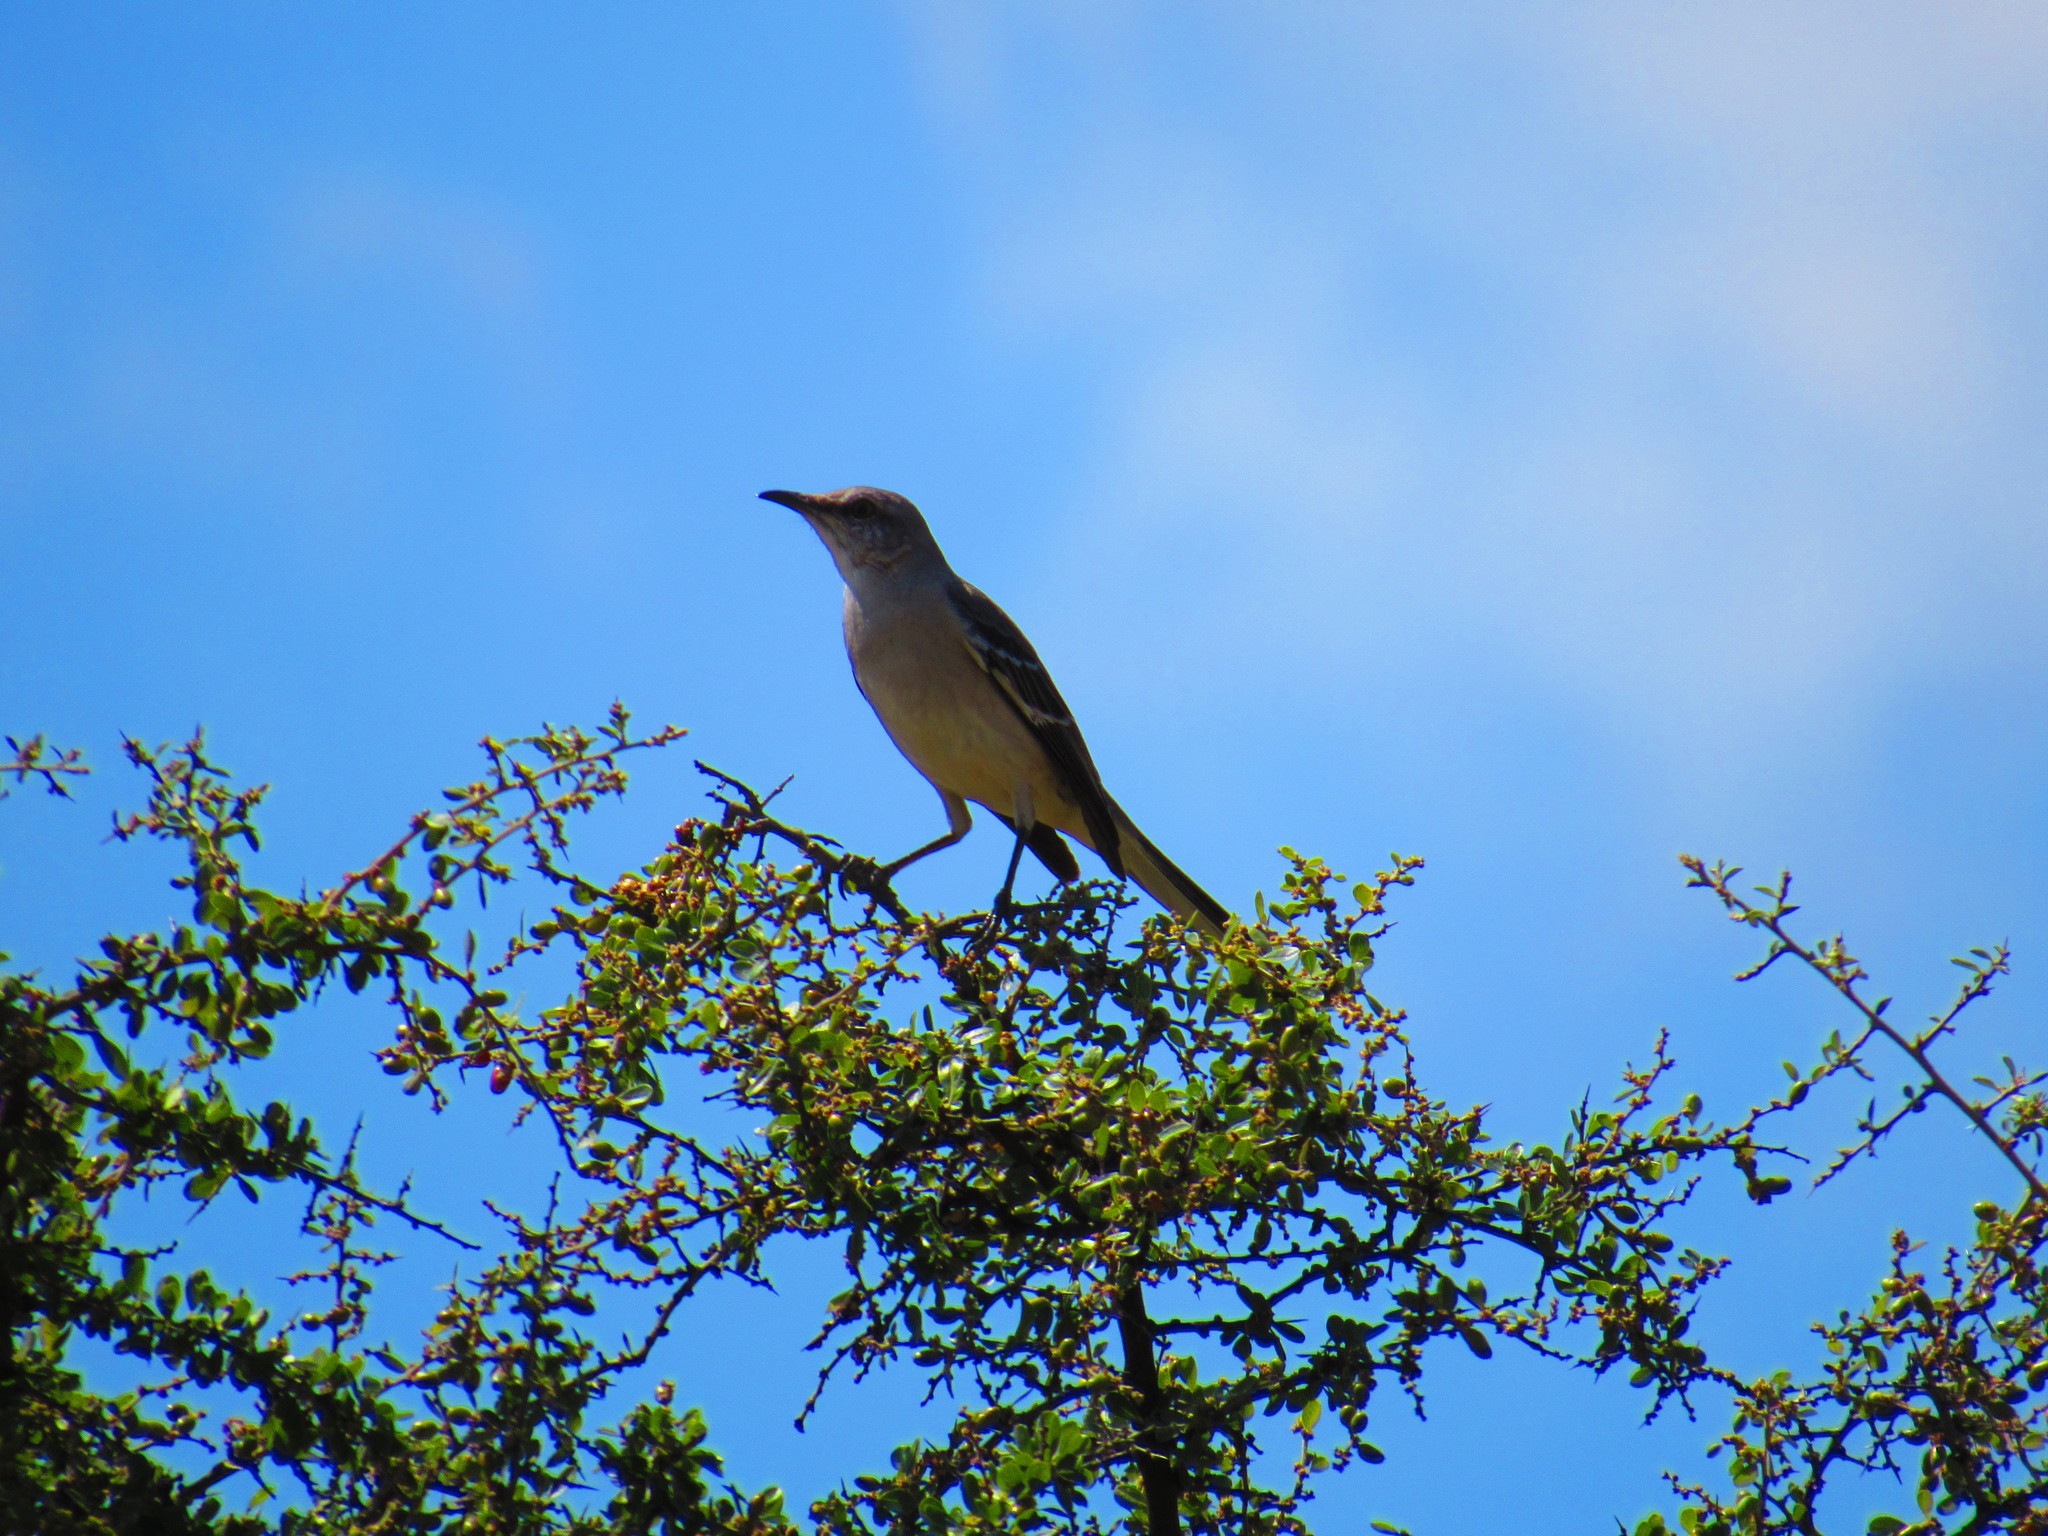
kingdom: Animalia
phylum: Chordata
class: Aves
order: Passeriformes
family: Mimidae
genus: Mimus
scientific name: Mimus polyglottos
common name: Northern mockingbird
